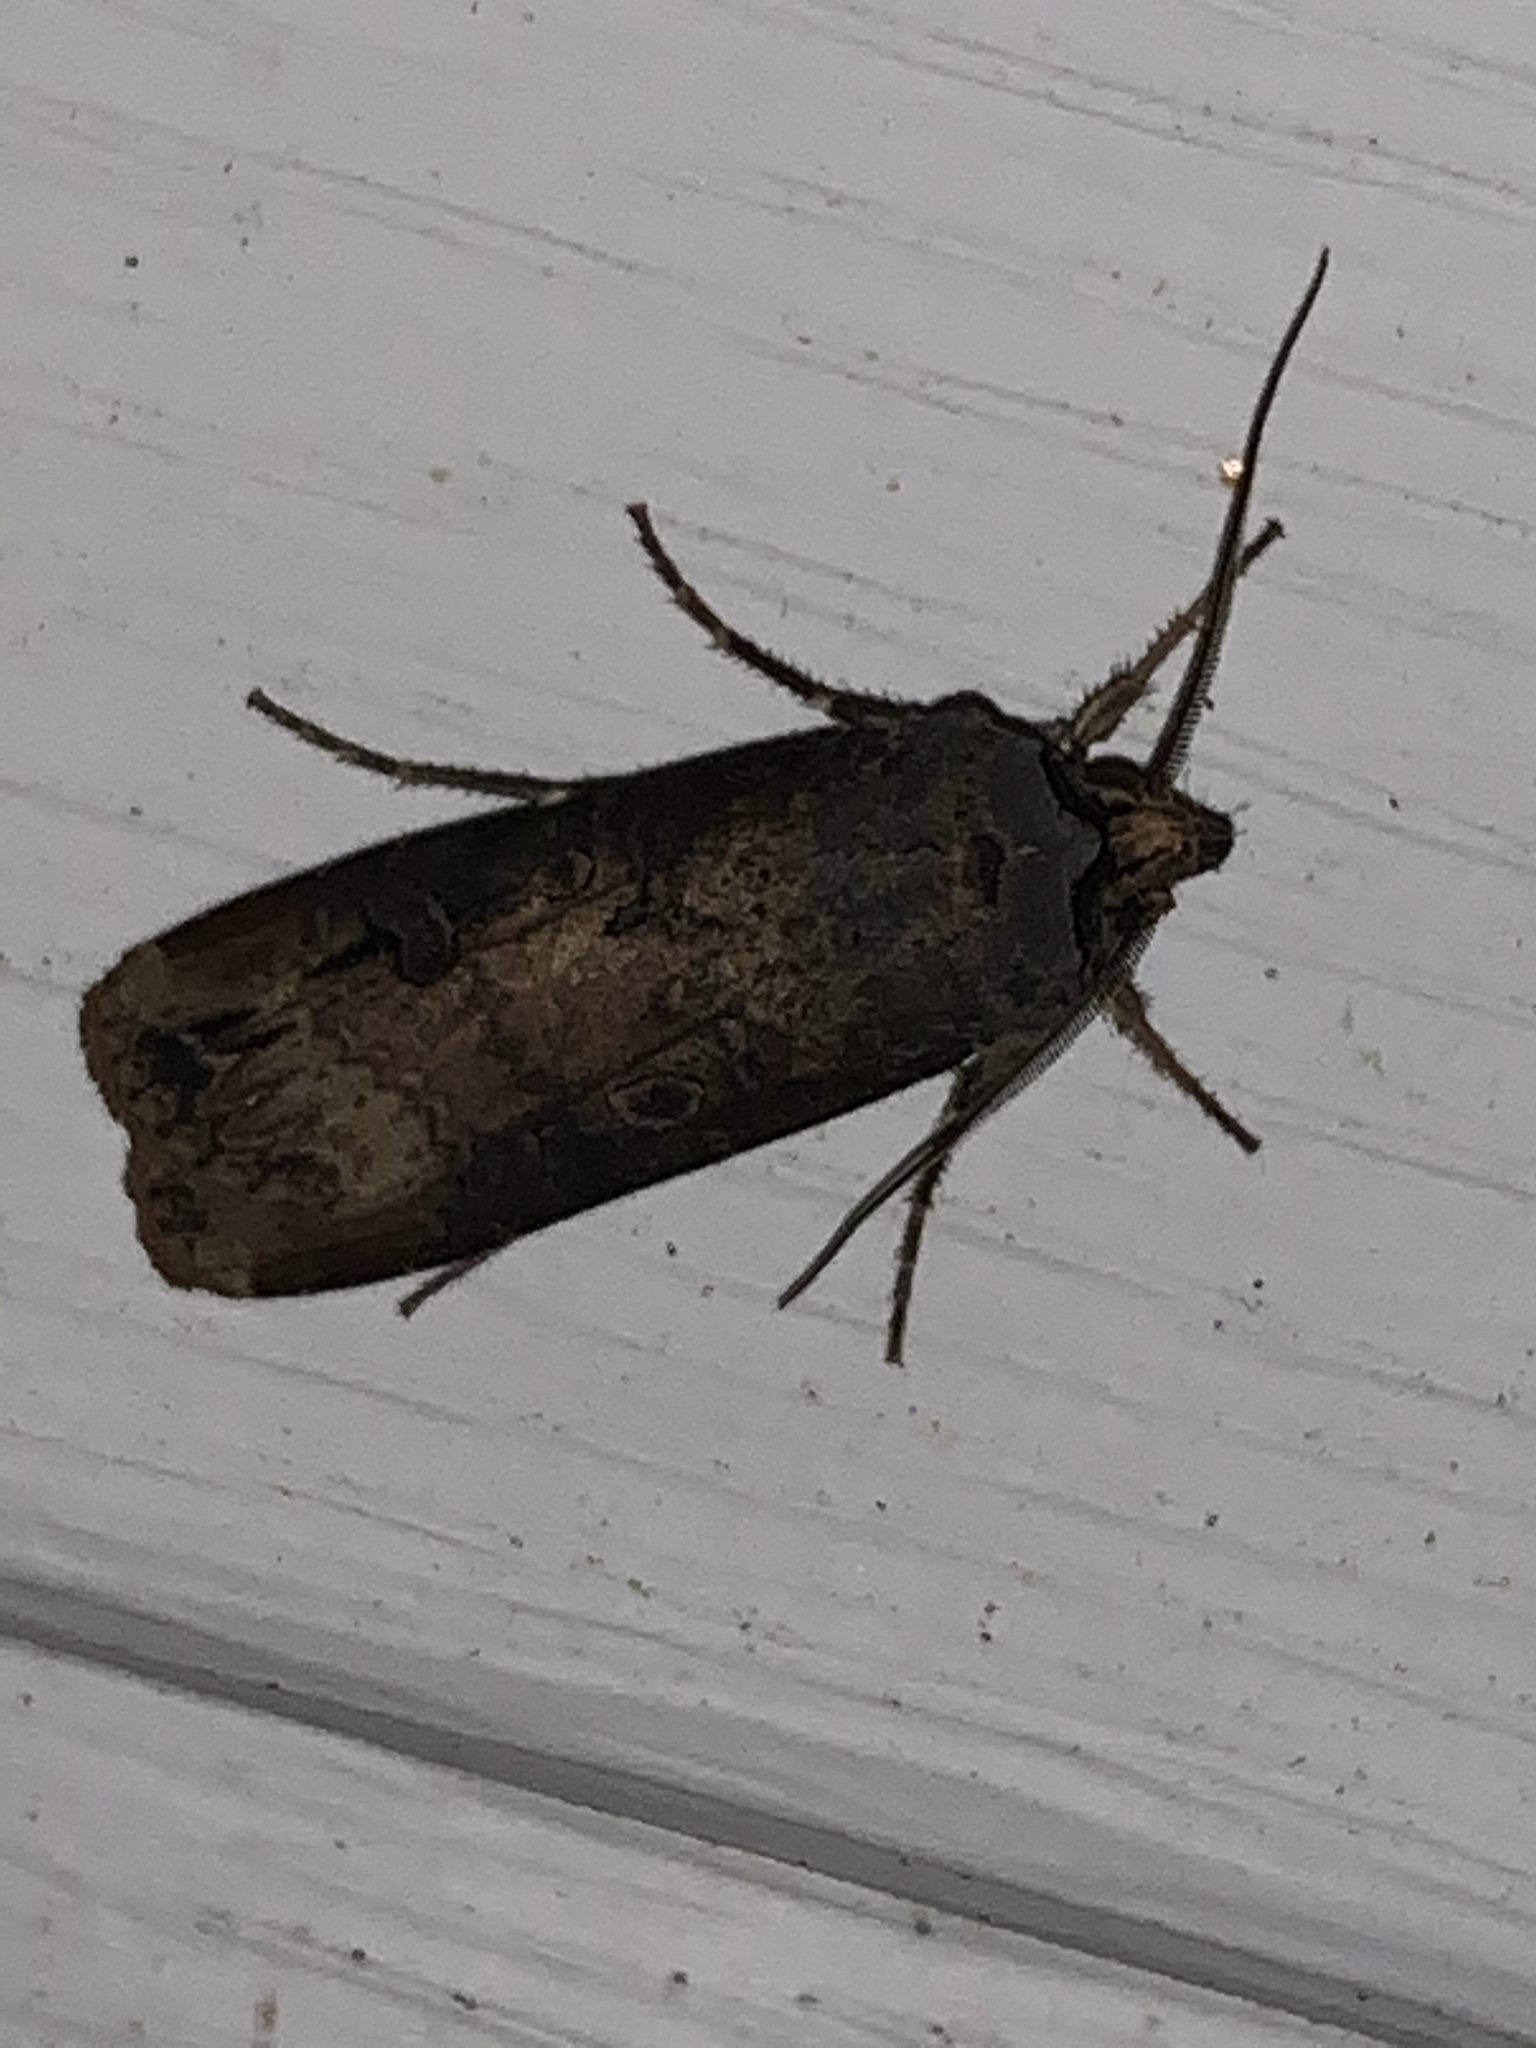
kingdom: Animalia
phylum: Arthropoda
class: Insecta
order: Lepidoptera
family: Noctuidae
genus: Agrotis
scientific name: Agrotis ipsilon
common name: Dark sword-grass
